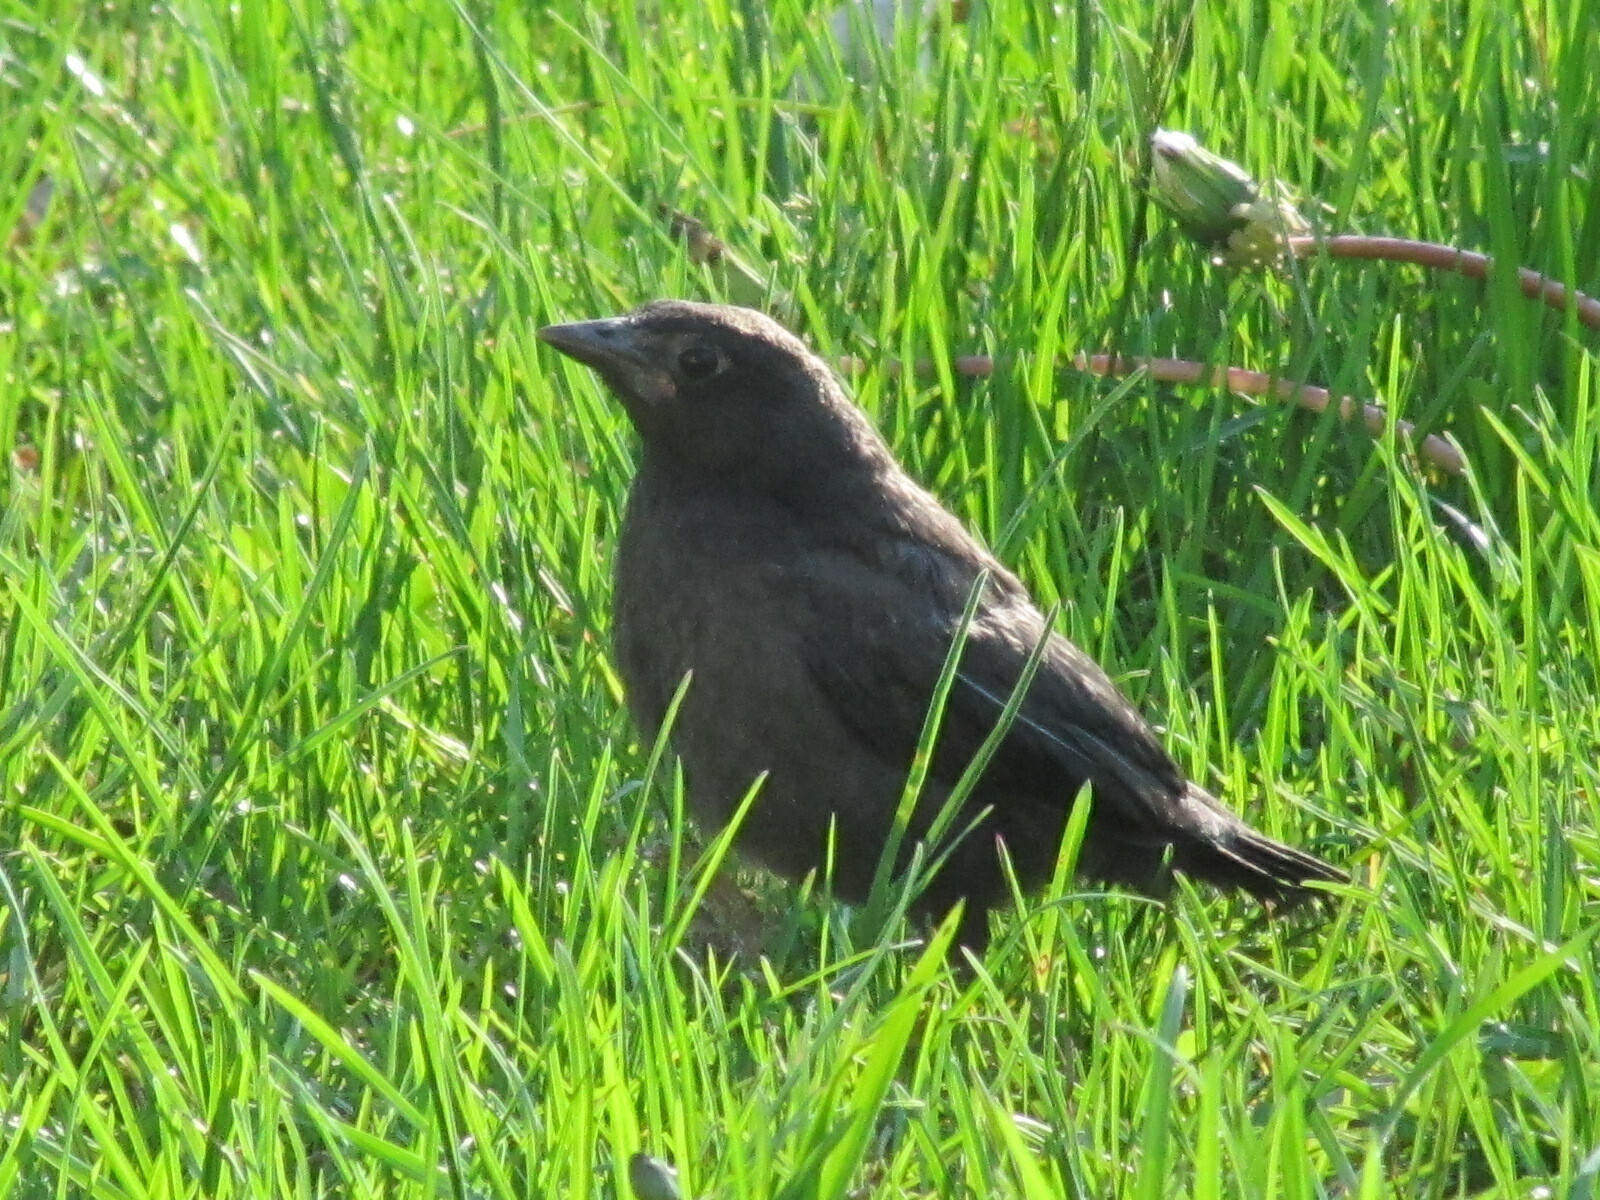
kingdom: Animalia
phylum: Chordata
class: Aves
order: Passeriformes
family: Icteridae
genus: Quiscalus
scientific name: Quiscalus quiscula
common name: Common grackle
